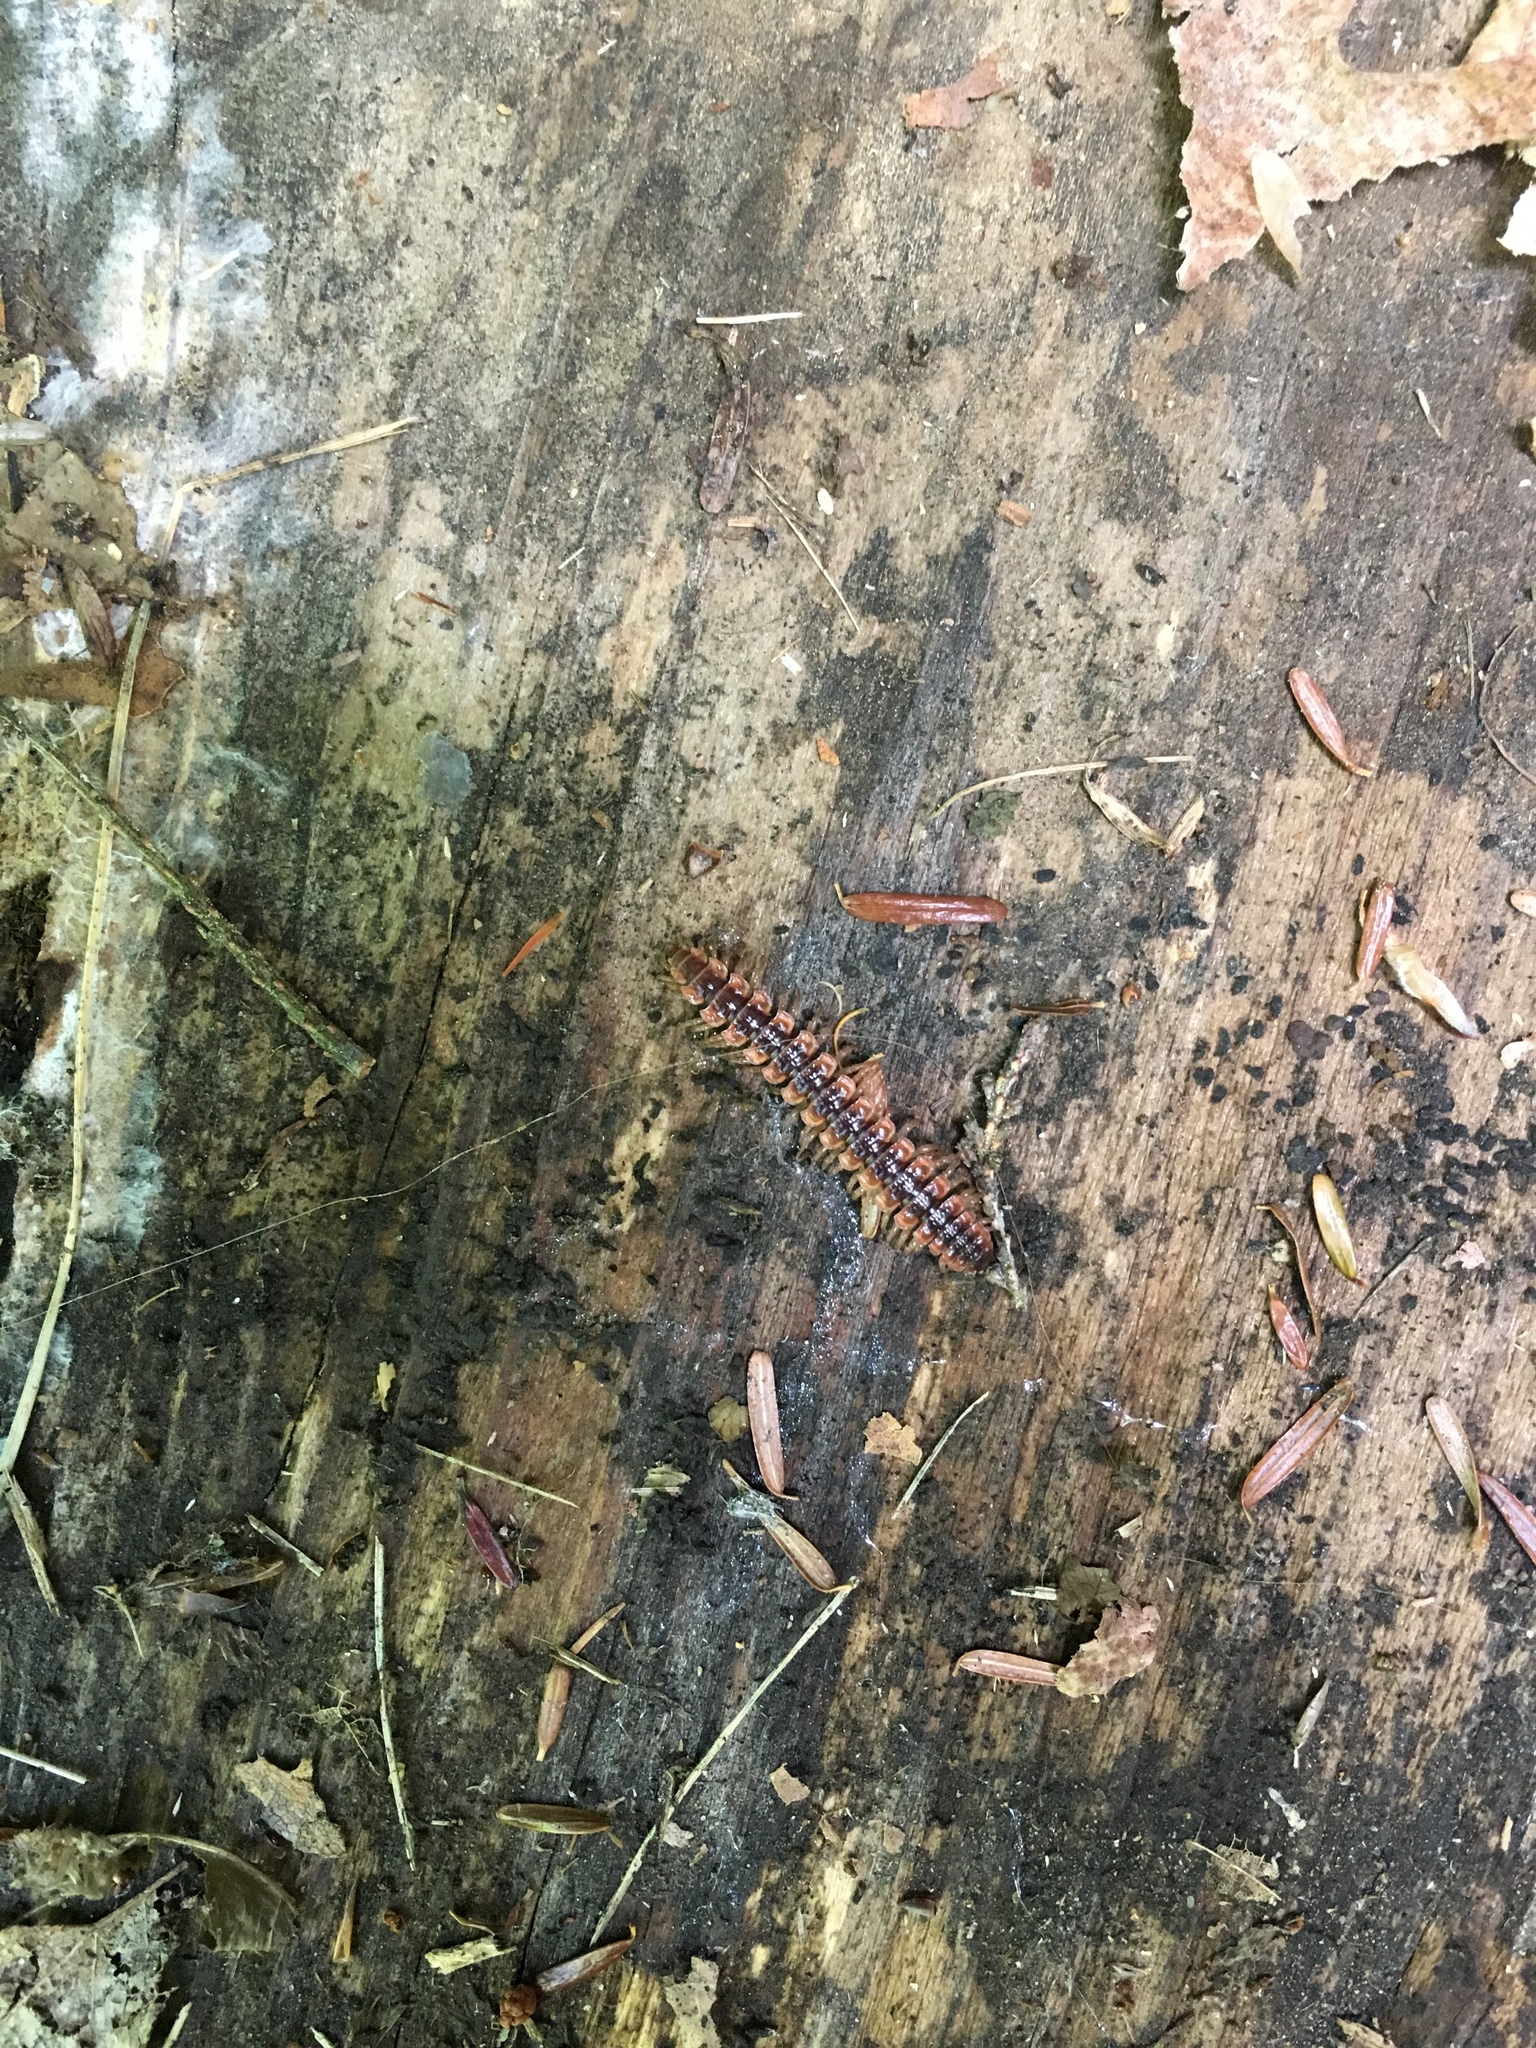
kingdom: Animalia
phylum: Arthropoda
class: Diplopoda
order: Polydesmida
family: Polydesmidae
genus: Pseudopolydesmus
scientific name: Pseudopolydesmus canadensis
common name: Canadian flat-back millipede
